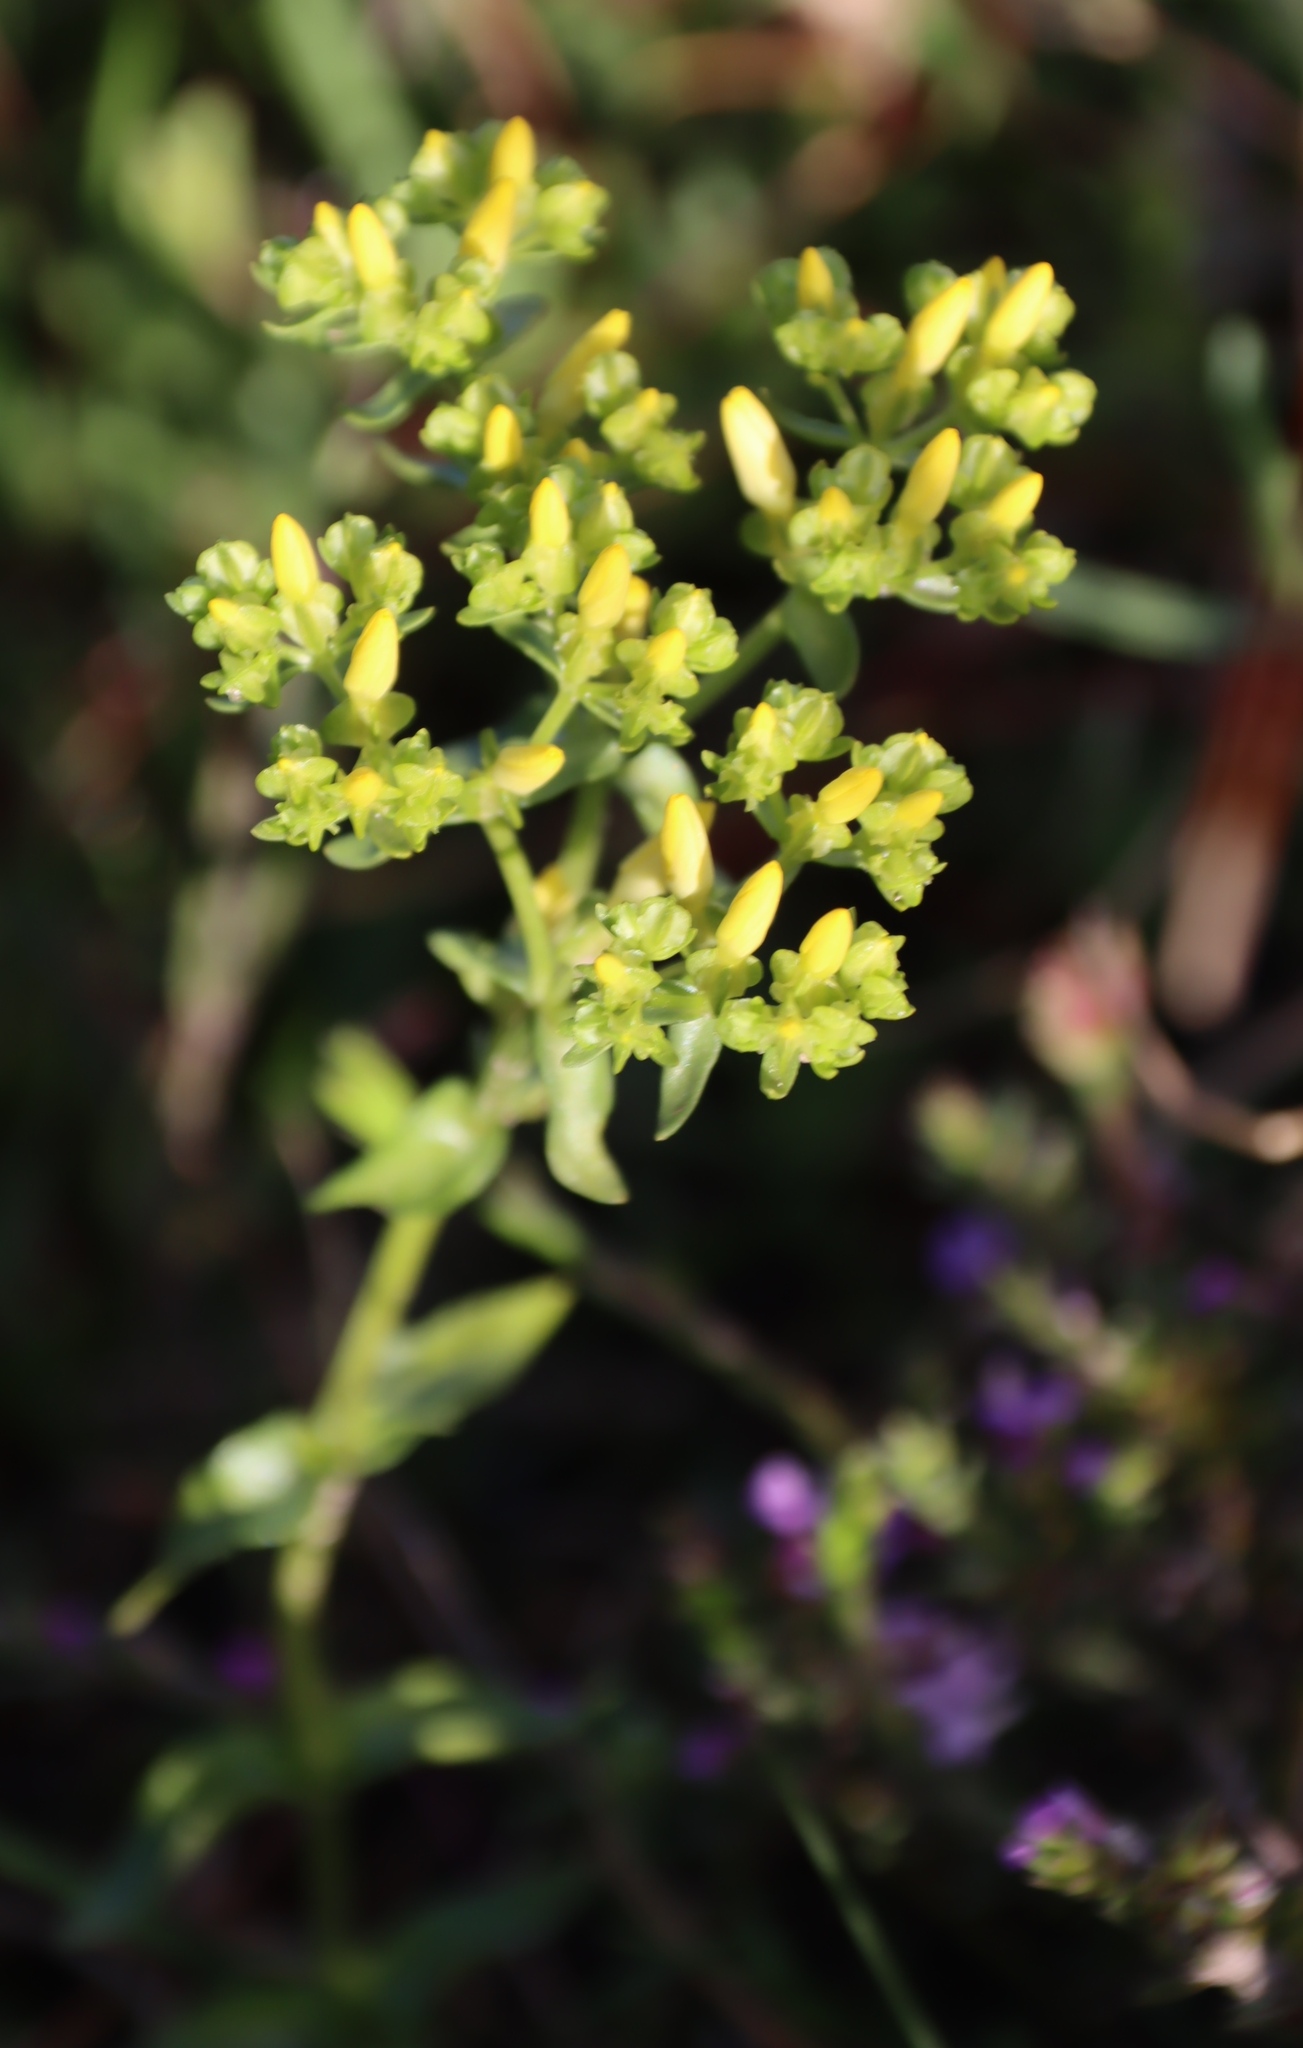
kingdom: Plantae
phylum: Tracheophyta
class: Magnoliopsida
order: Gentianales
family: Gentianaceae
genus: Sebaea
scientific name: Sebaea aurea
